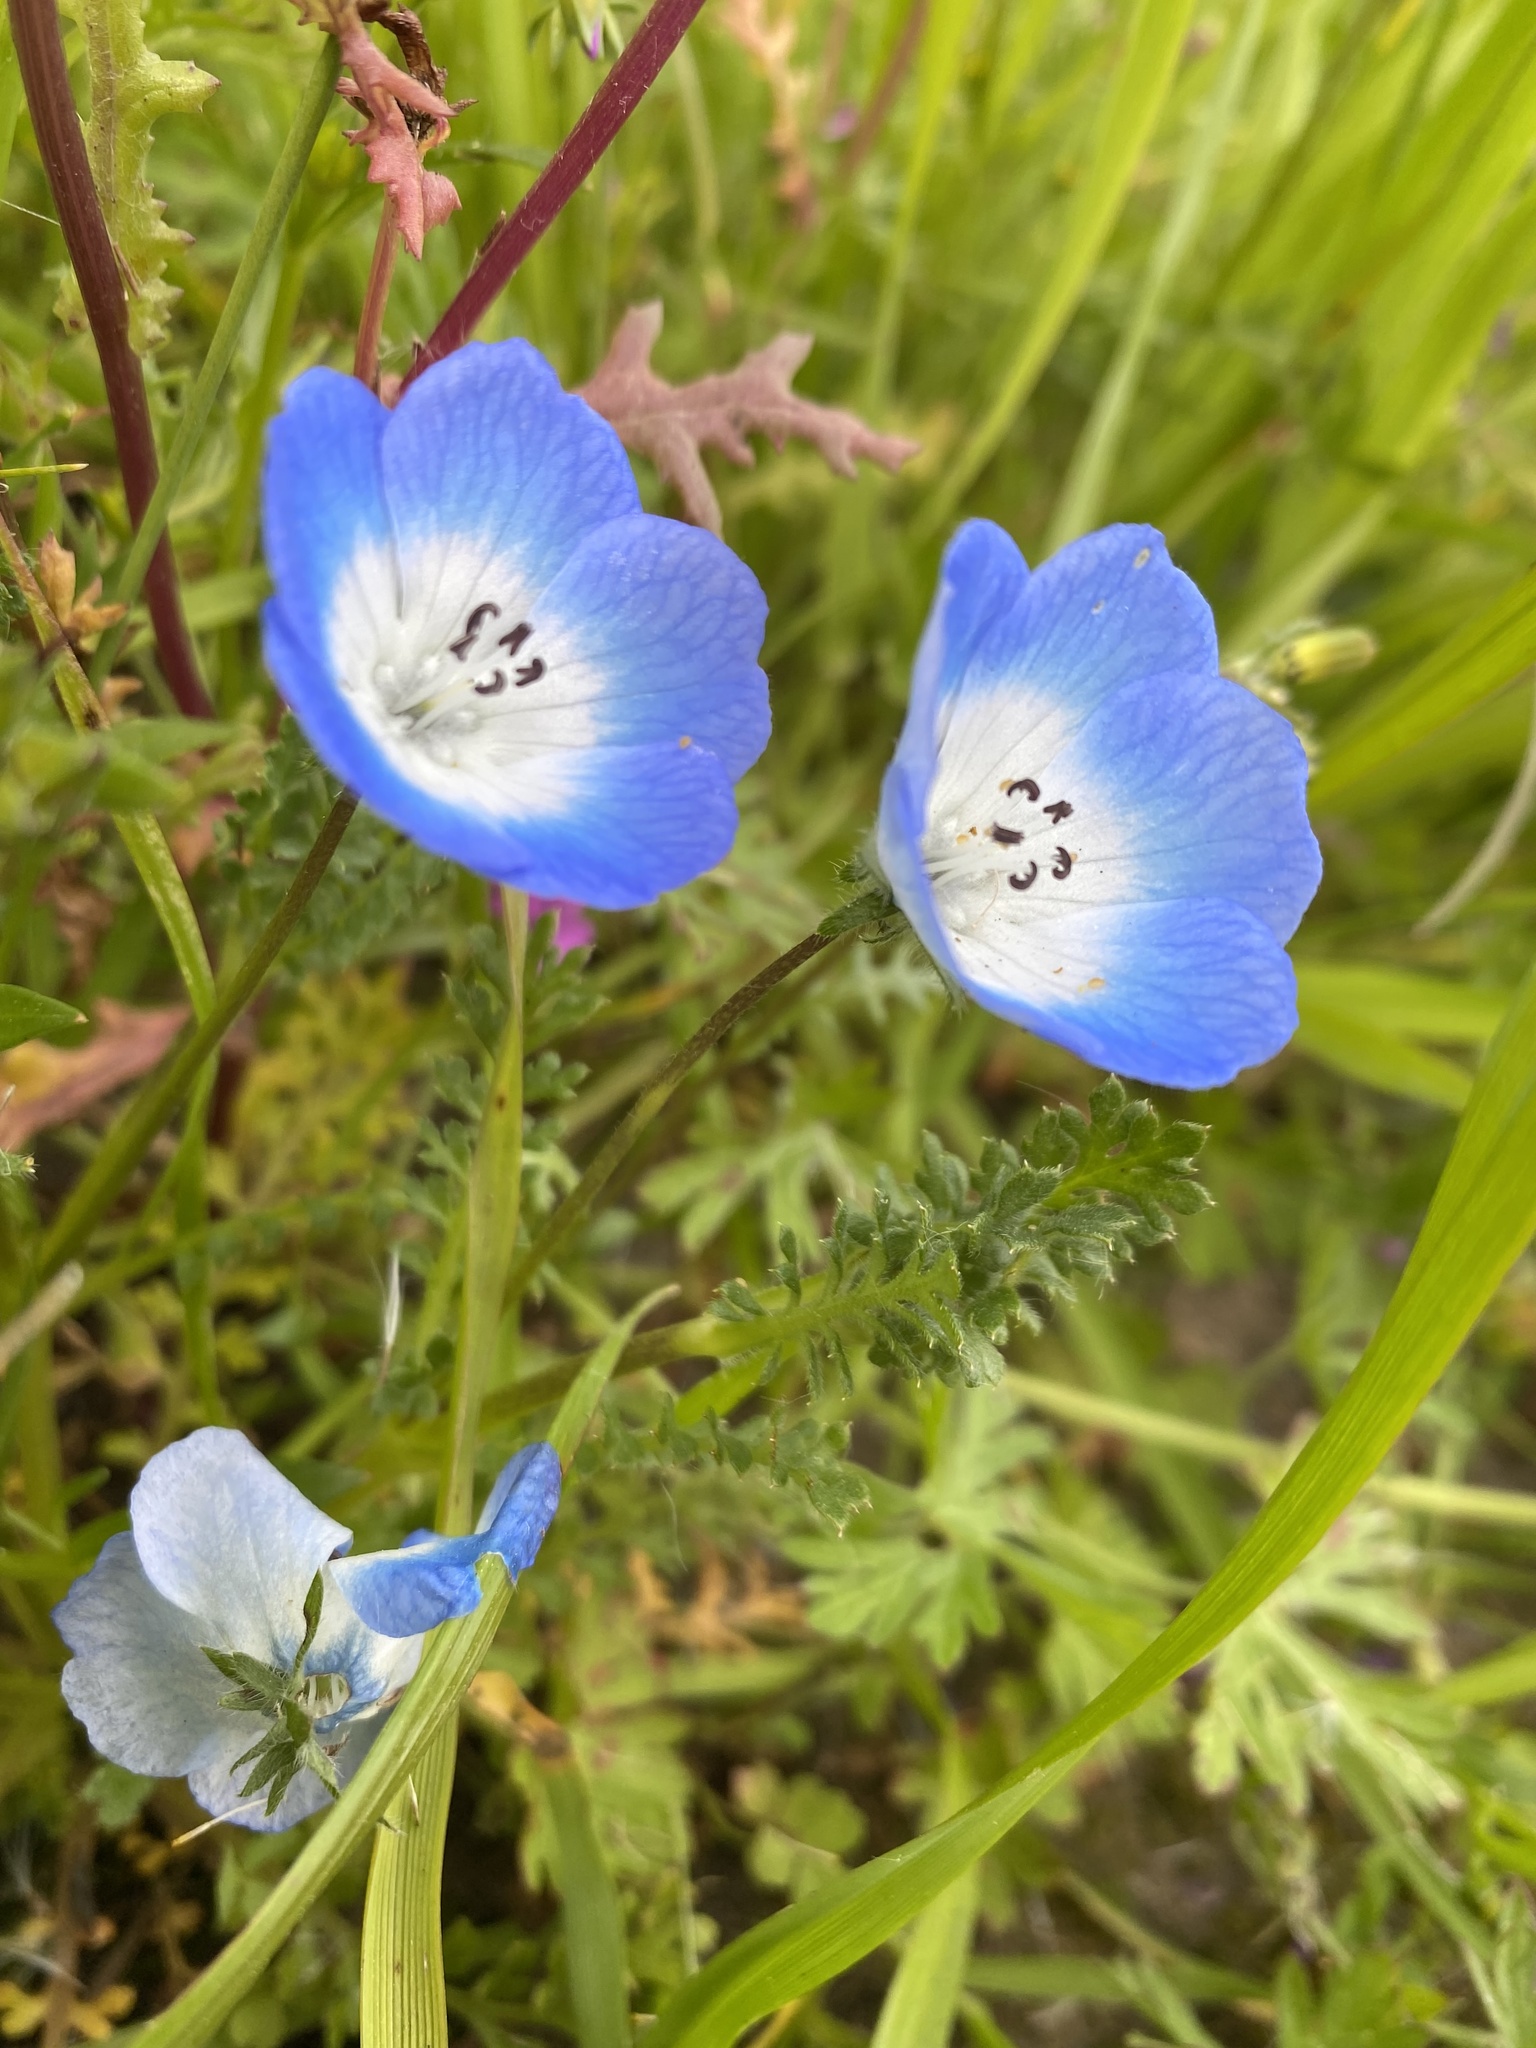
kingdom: Plantae
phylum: Tracheophyta
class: Magnoliopsida
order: Boraginales
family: Hydrophyllaceae
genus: Nemophila
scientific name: Nemophila menziesii
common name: Baby's-blue-eyes
